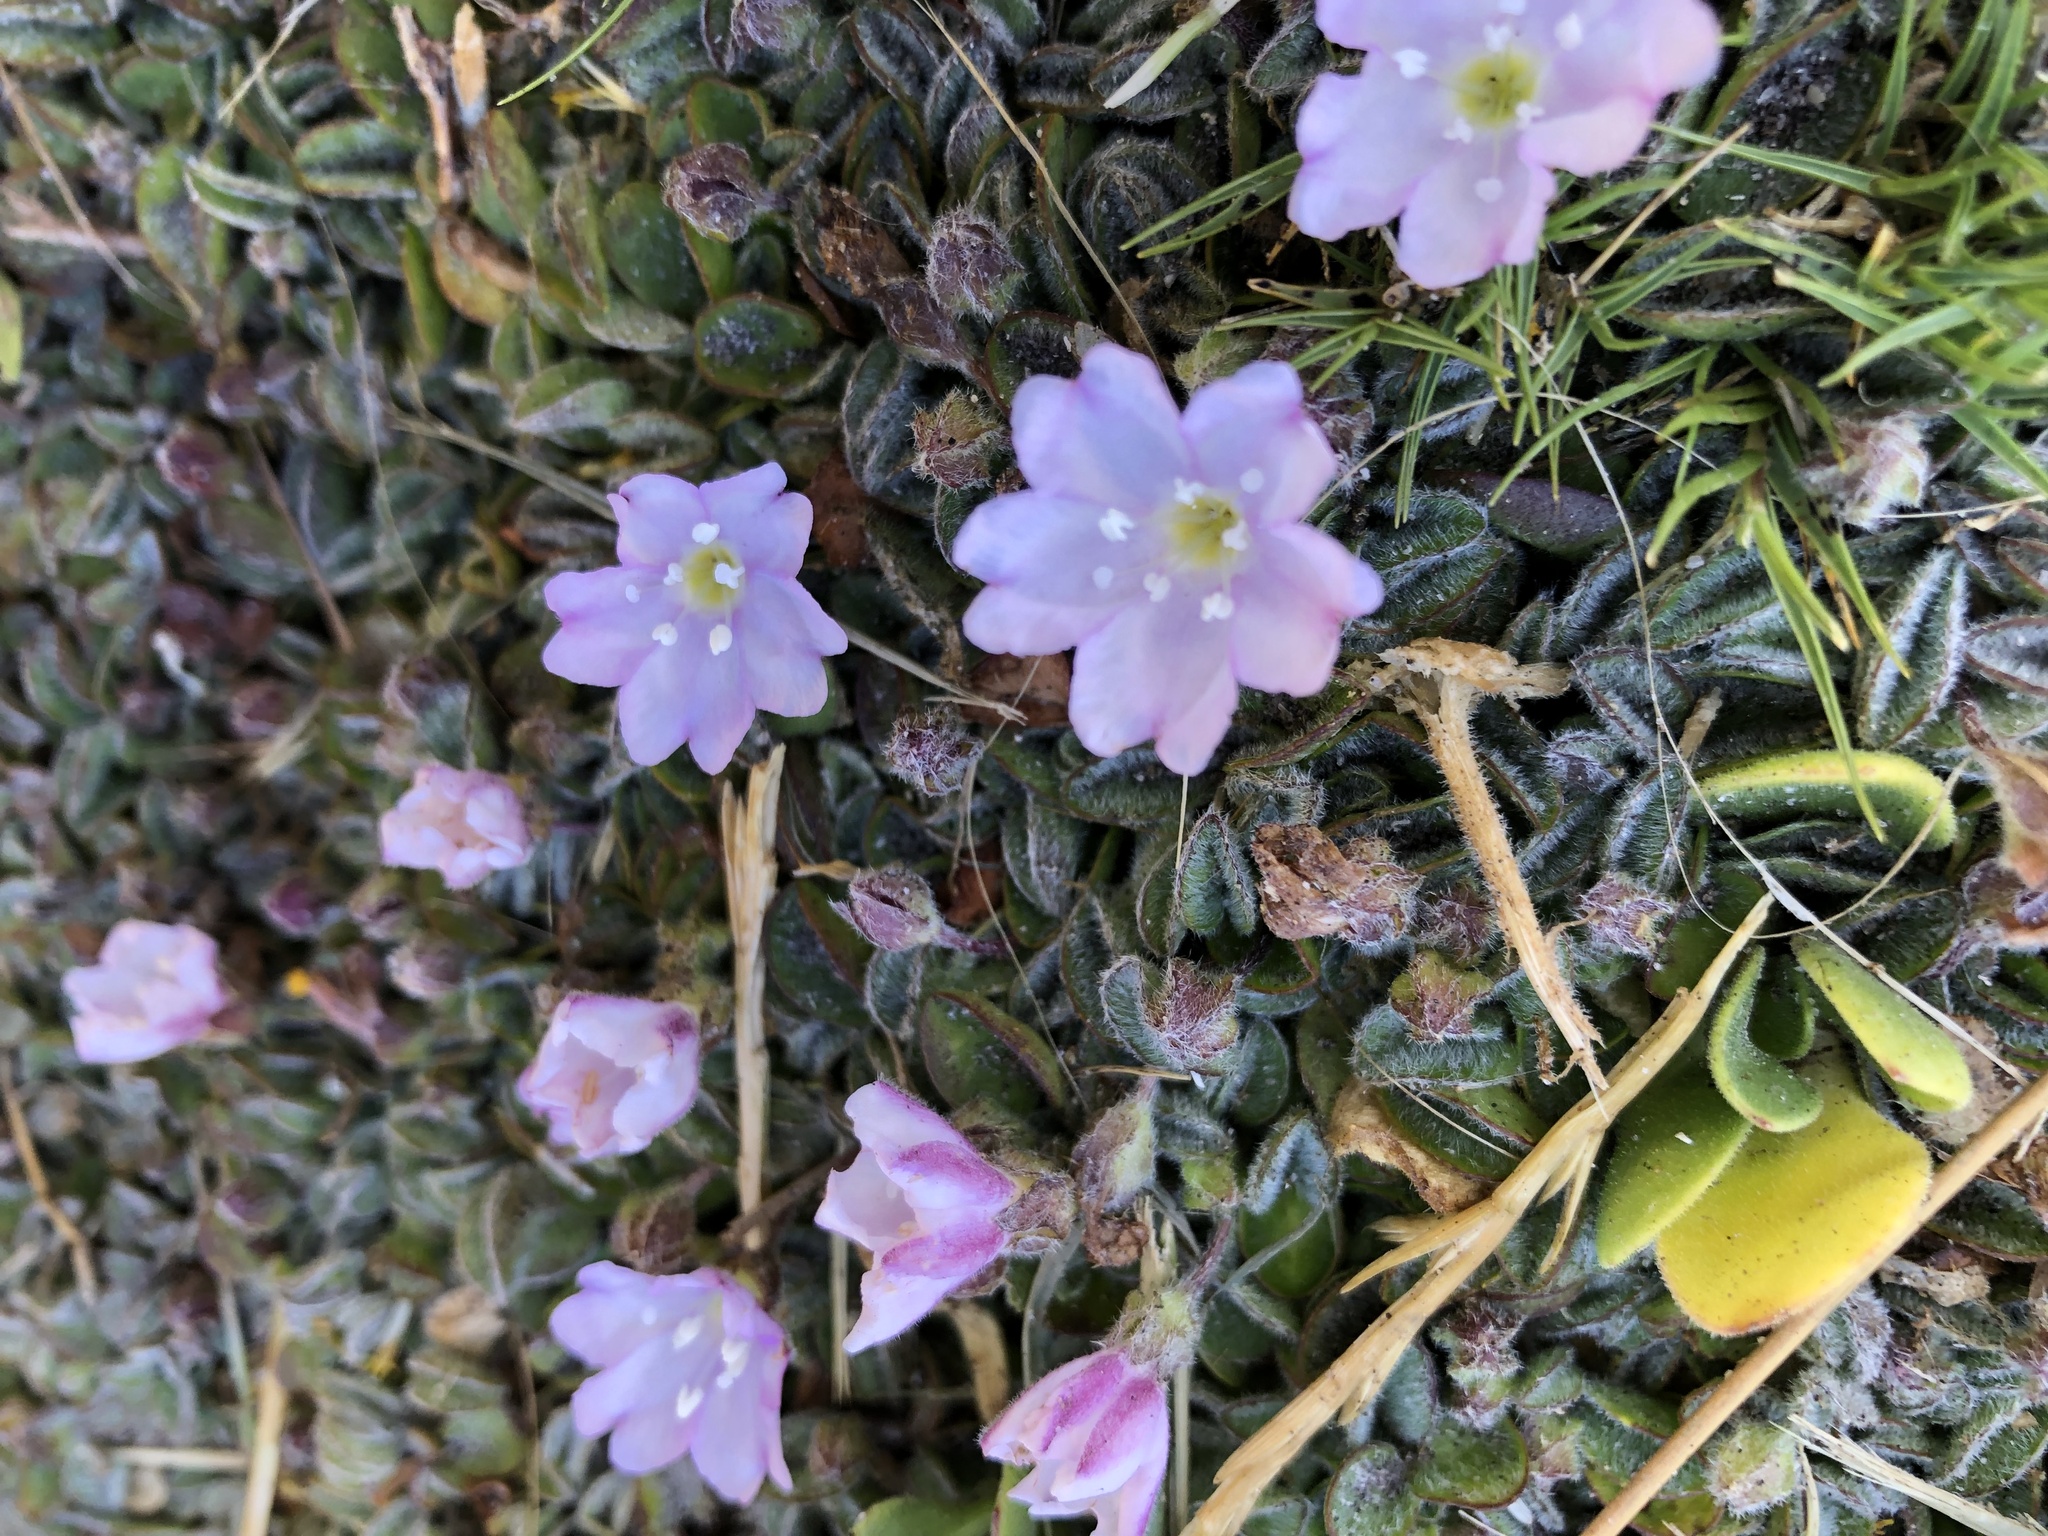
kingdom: Plantae
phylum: Tracheophyta
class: Magnoliopsida
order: Solanales
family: Convolvulaceae
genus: Falkia
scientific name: Falkia repens
